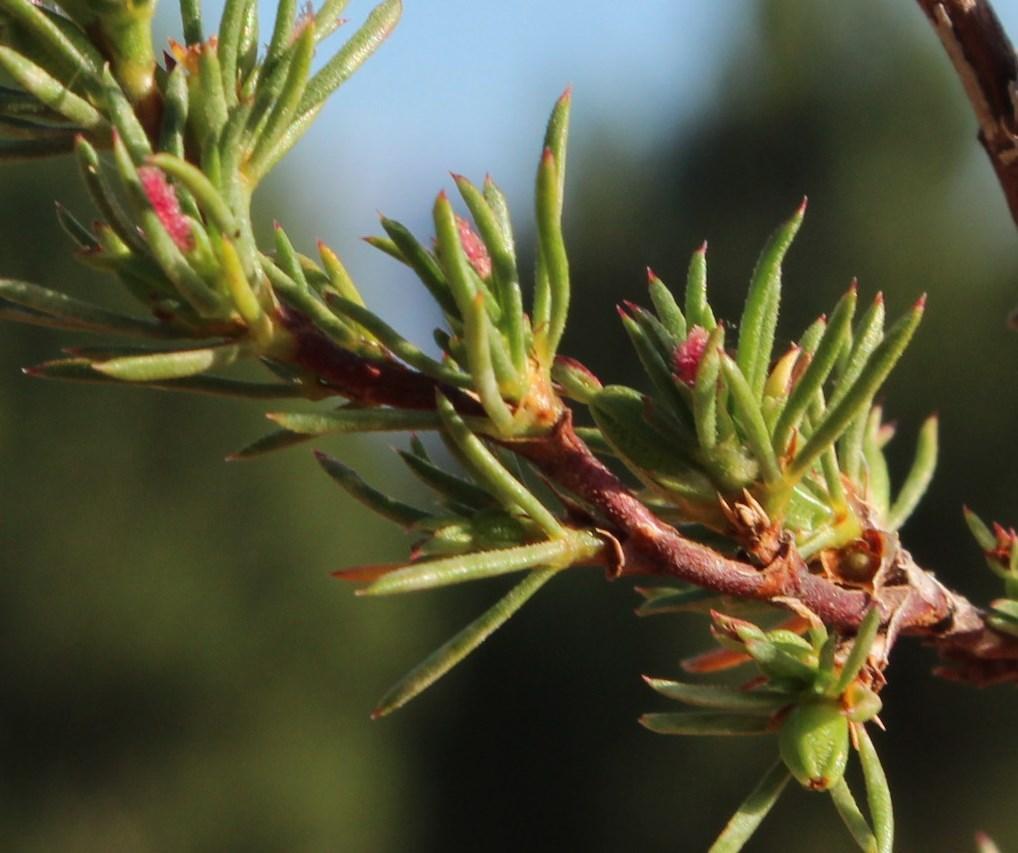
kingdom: Plantae
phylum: Tracheophyta
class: Magnoliopsida
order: Rosales
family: Rosaceae
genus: Cliffortia
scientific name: Cliffortia juniperina
